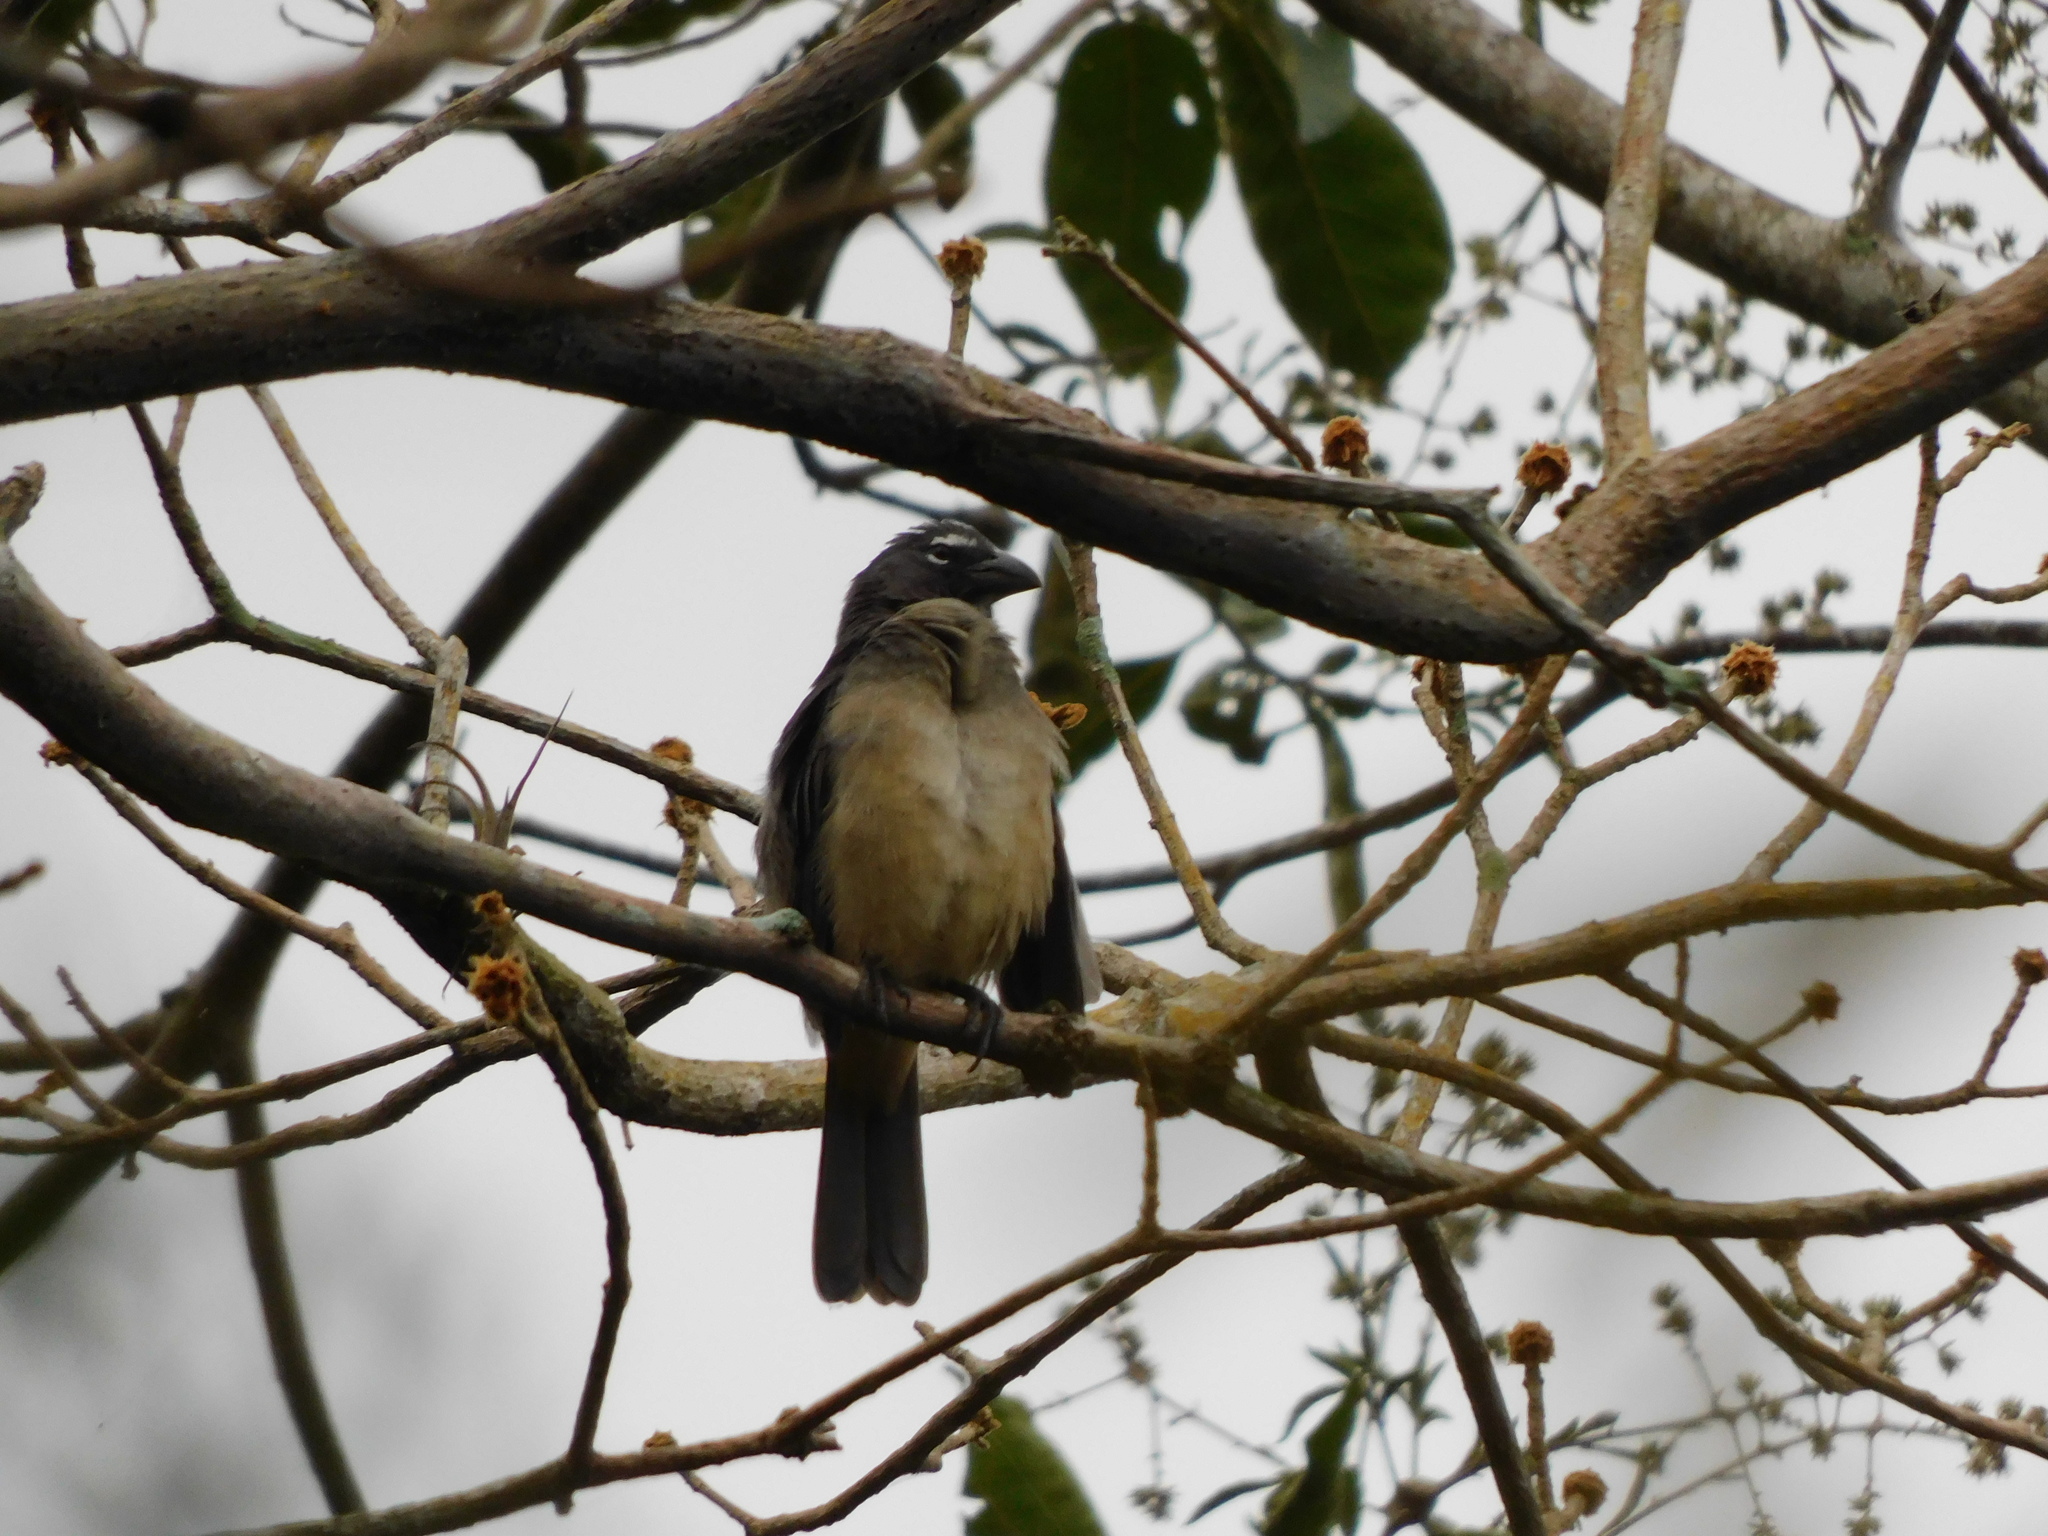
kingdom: Animalia
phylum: Chordata
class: Aves
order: Passeriformes
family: Thraupidae
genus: Saltator
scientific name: Saltator olivascens
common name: Caribbean grey saltator
